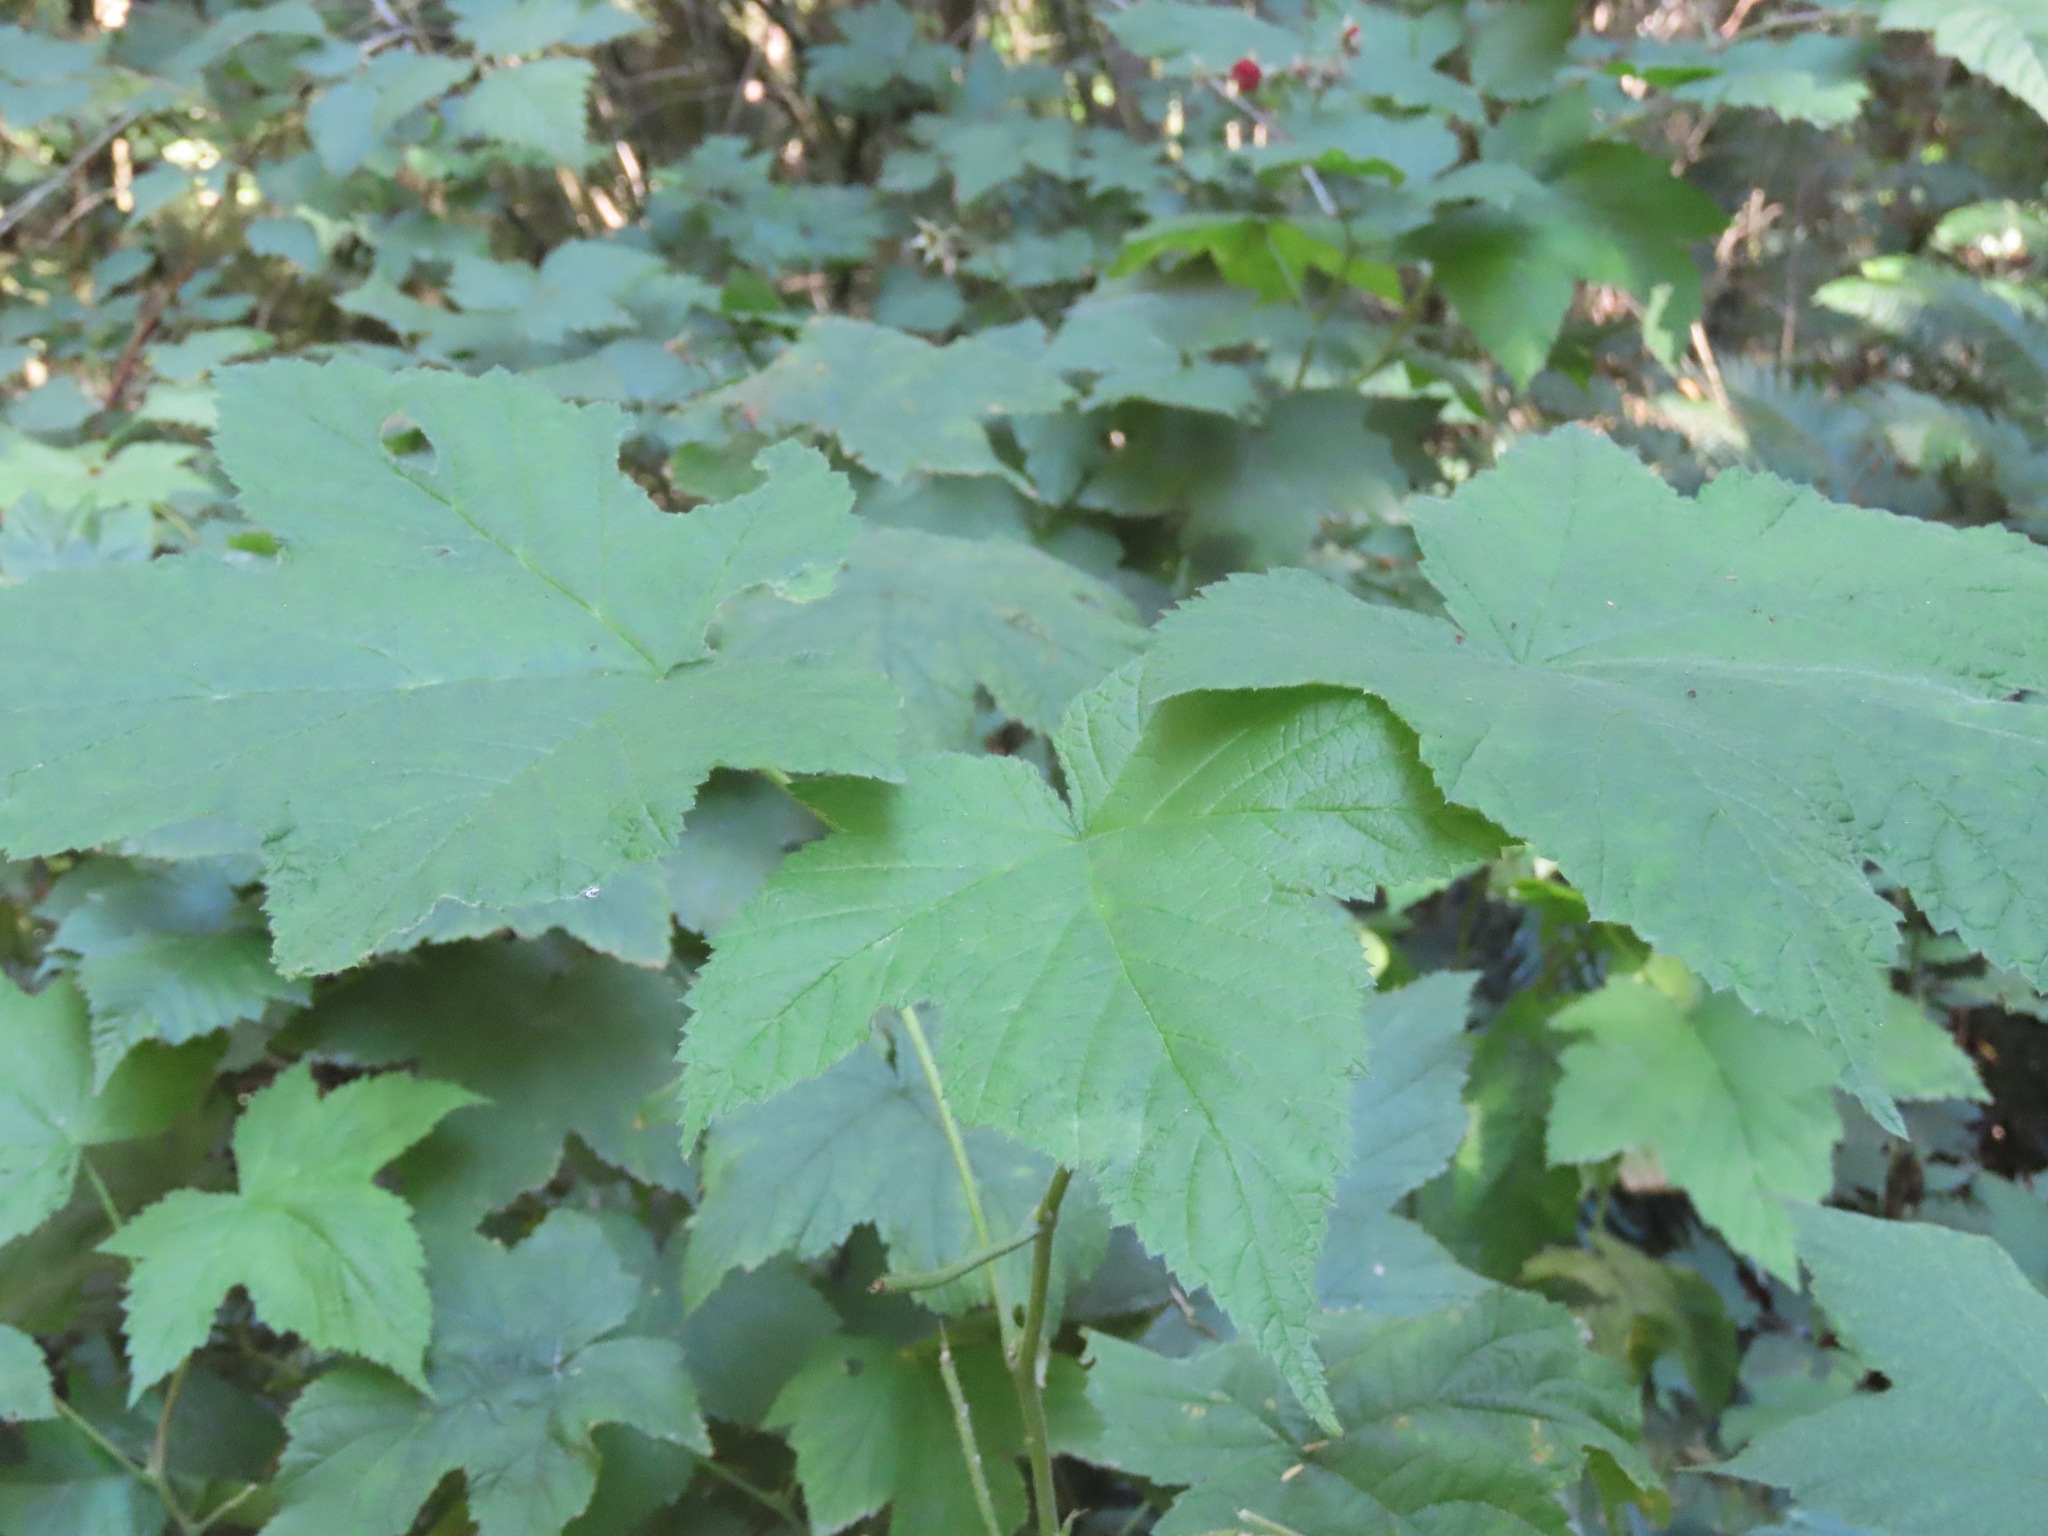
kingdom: Plantae
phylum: Tracheophyta
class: Magnoliopsida
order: Rosales
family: Rosaceae
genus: Rubus
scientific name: Rubus parviflorus
